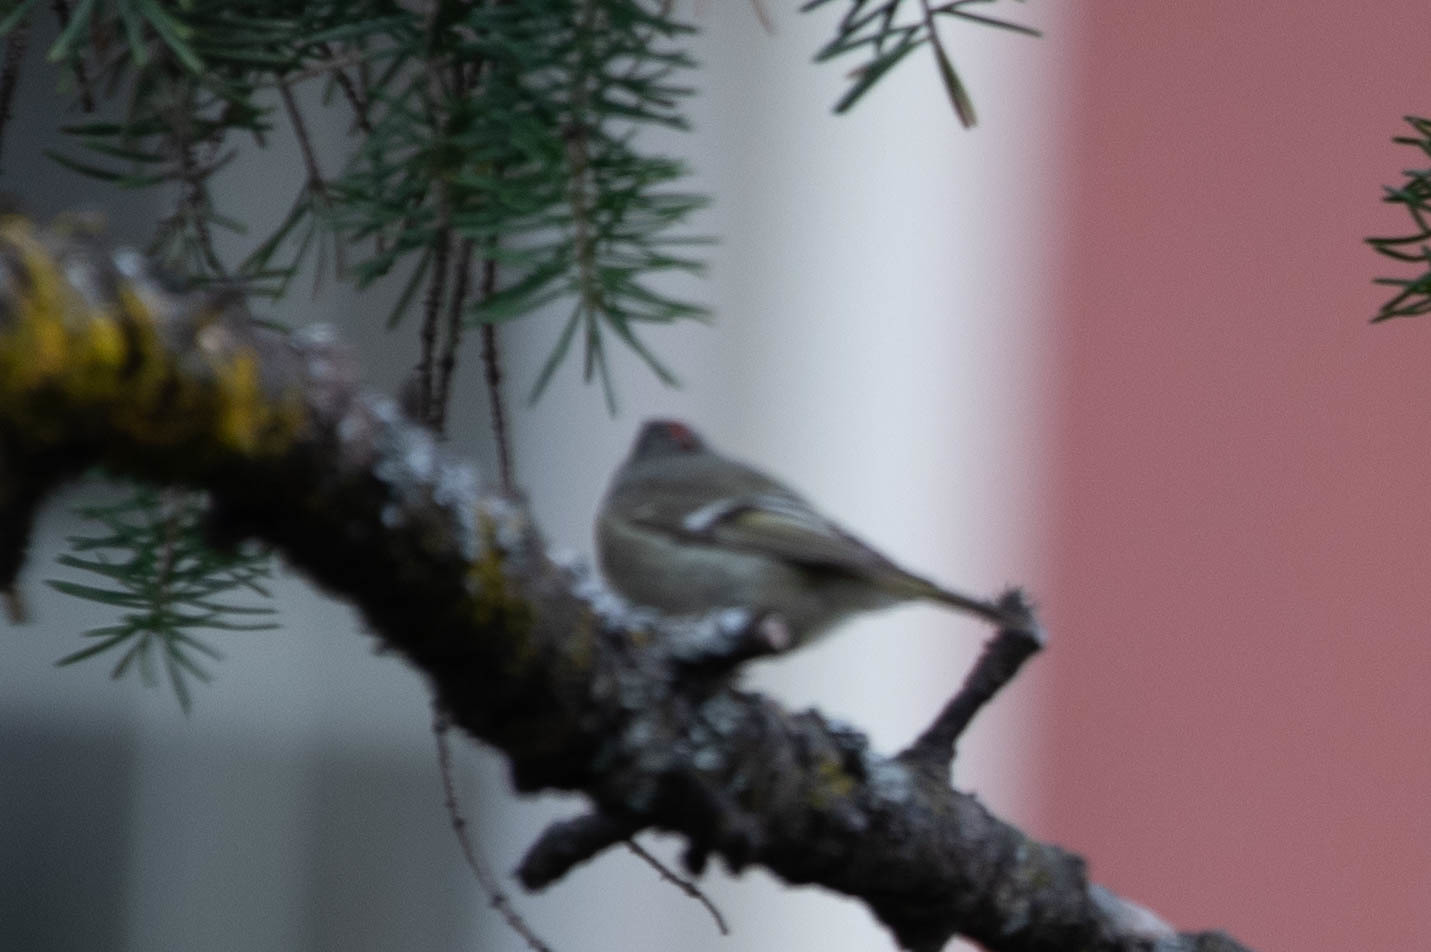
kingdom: Animalia
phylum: Chordata
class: Aves
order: Passeriformes
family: Regulidae
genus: Regulus
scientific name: Regulus calendula
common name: Ruby-crowned kinglet
